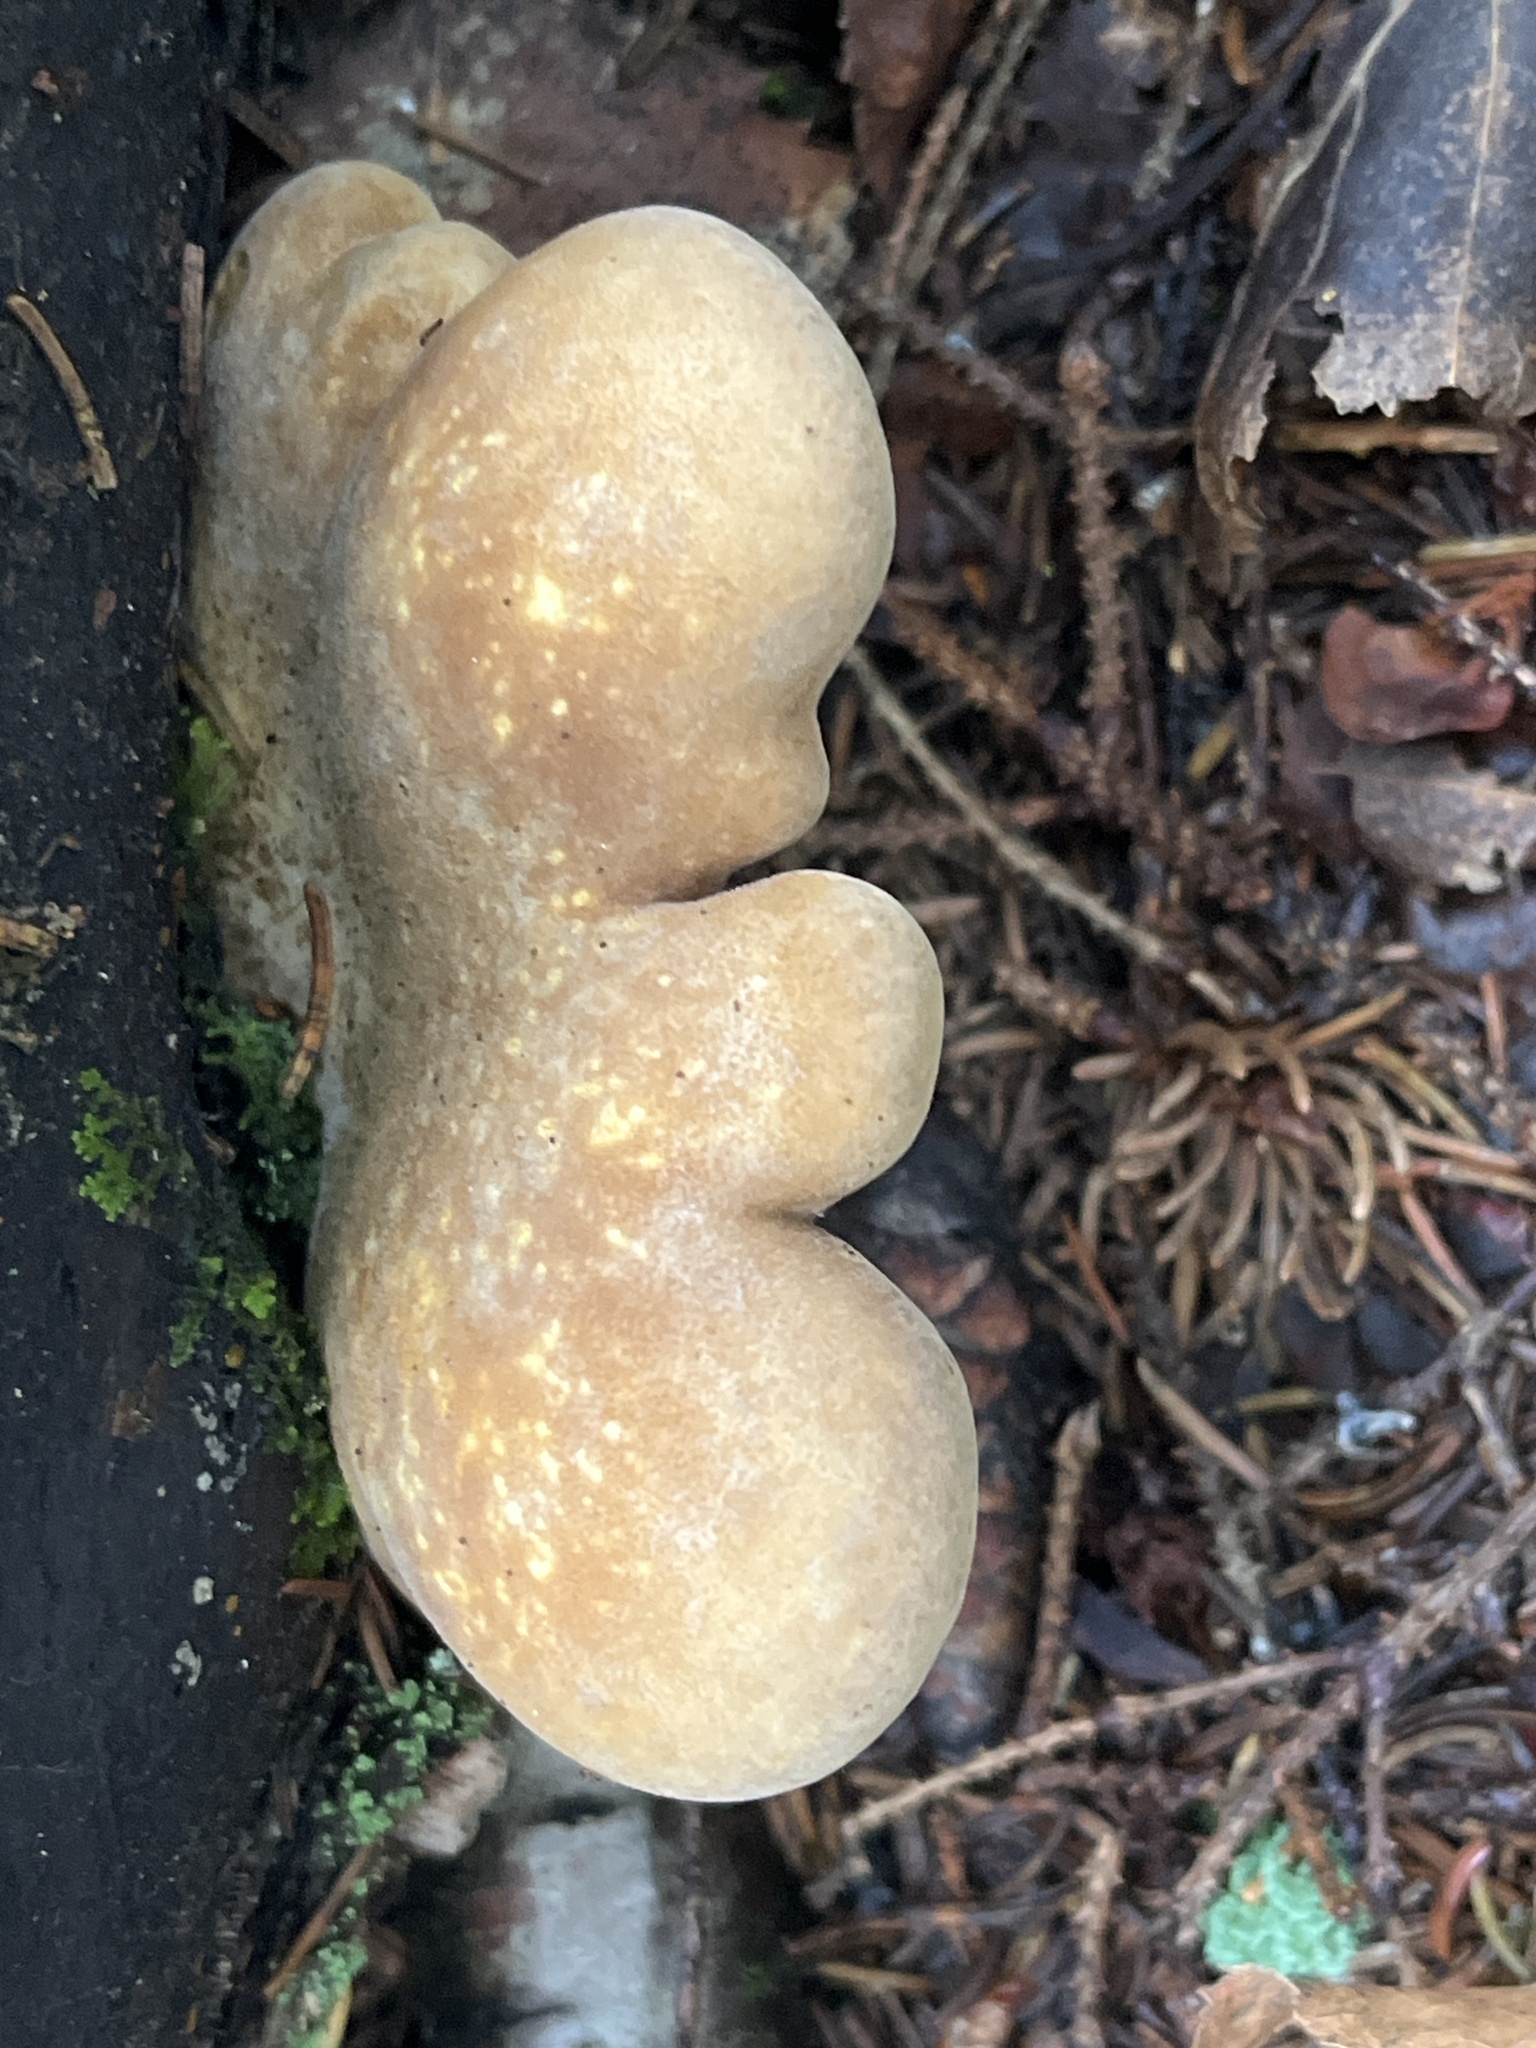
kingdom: Fungi
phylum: Basidiomycota
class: Agaricomycetes
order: Boletales
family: Tapinellaceae
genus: Tapinella
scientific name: Tapinella atrotomentosa
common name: Velvet rollrim
